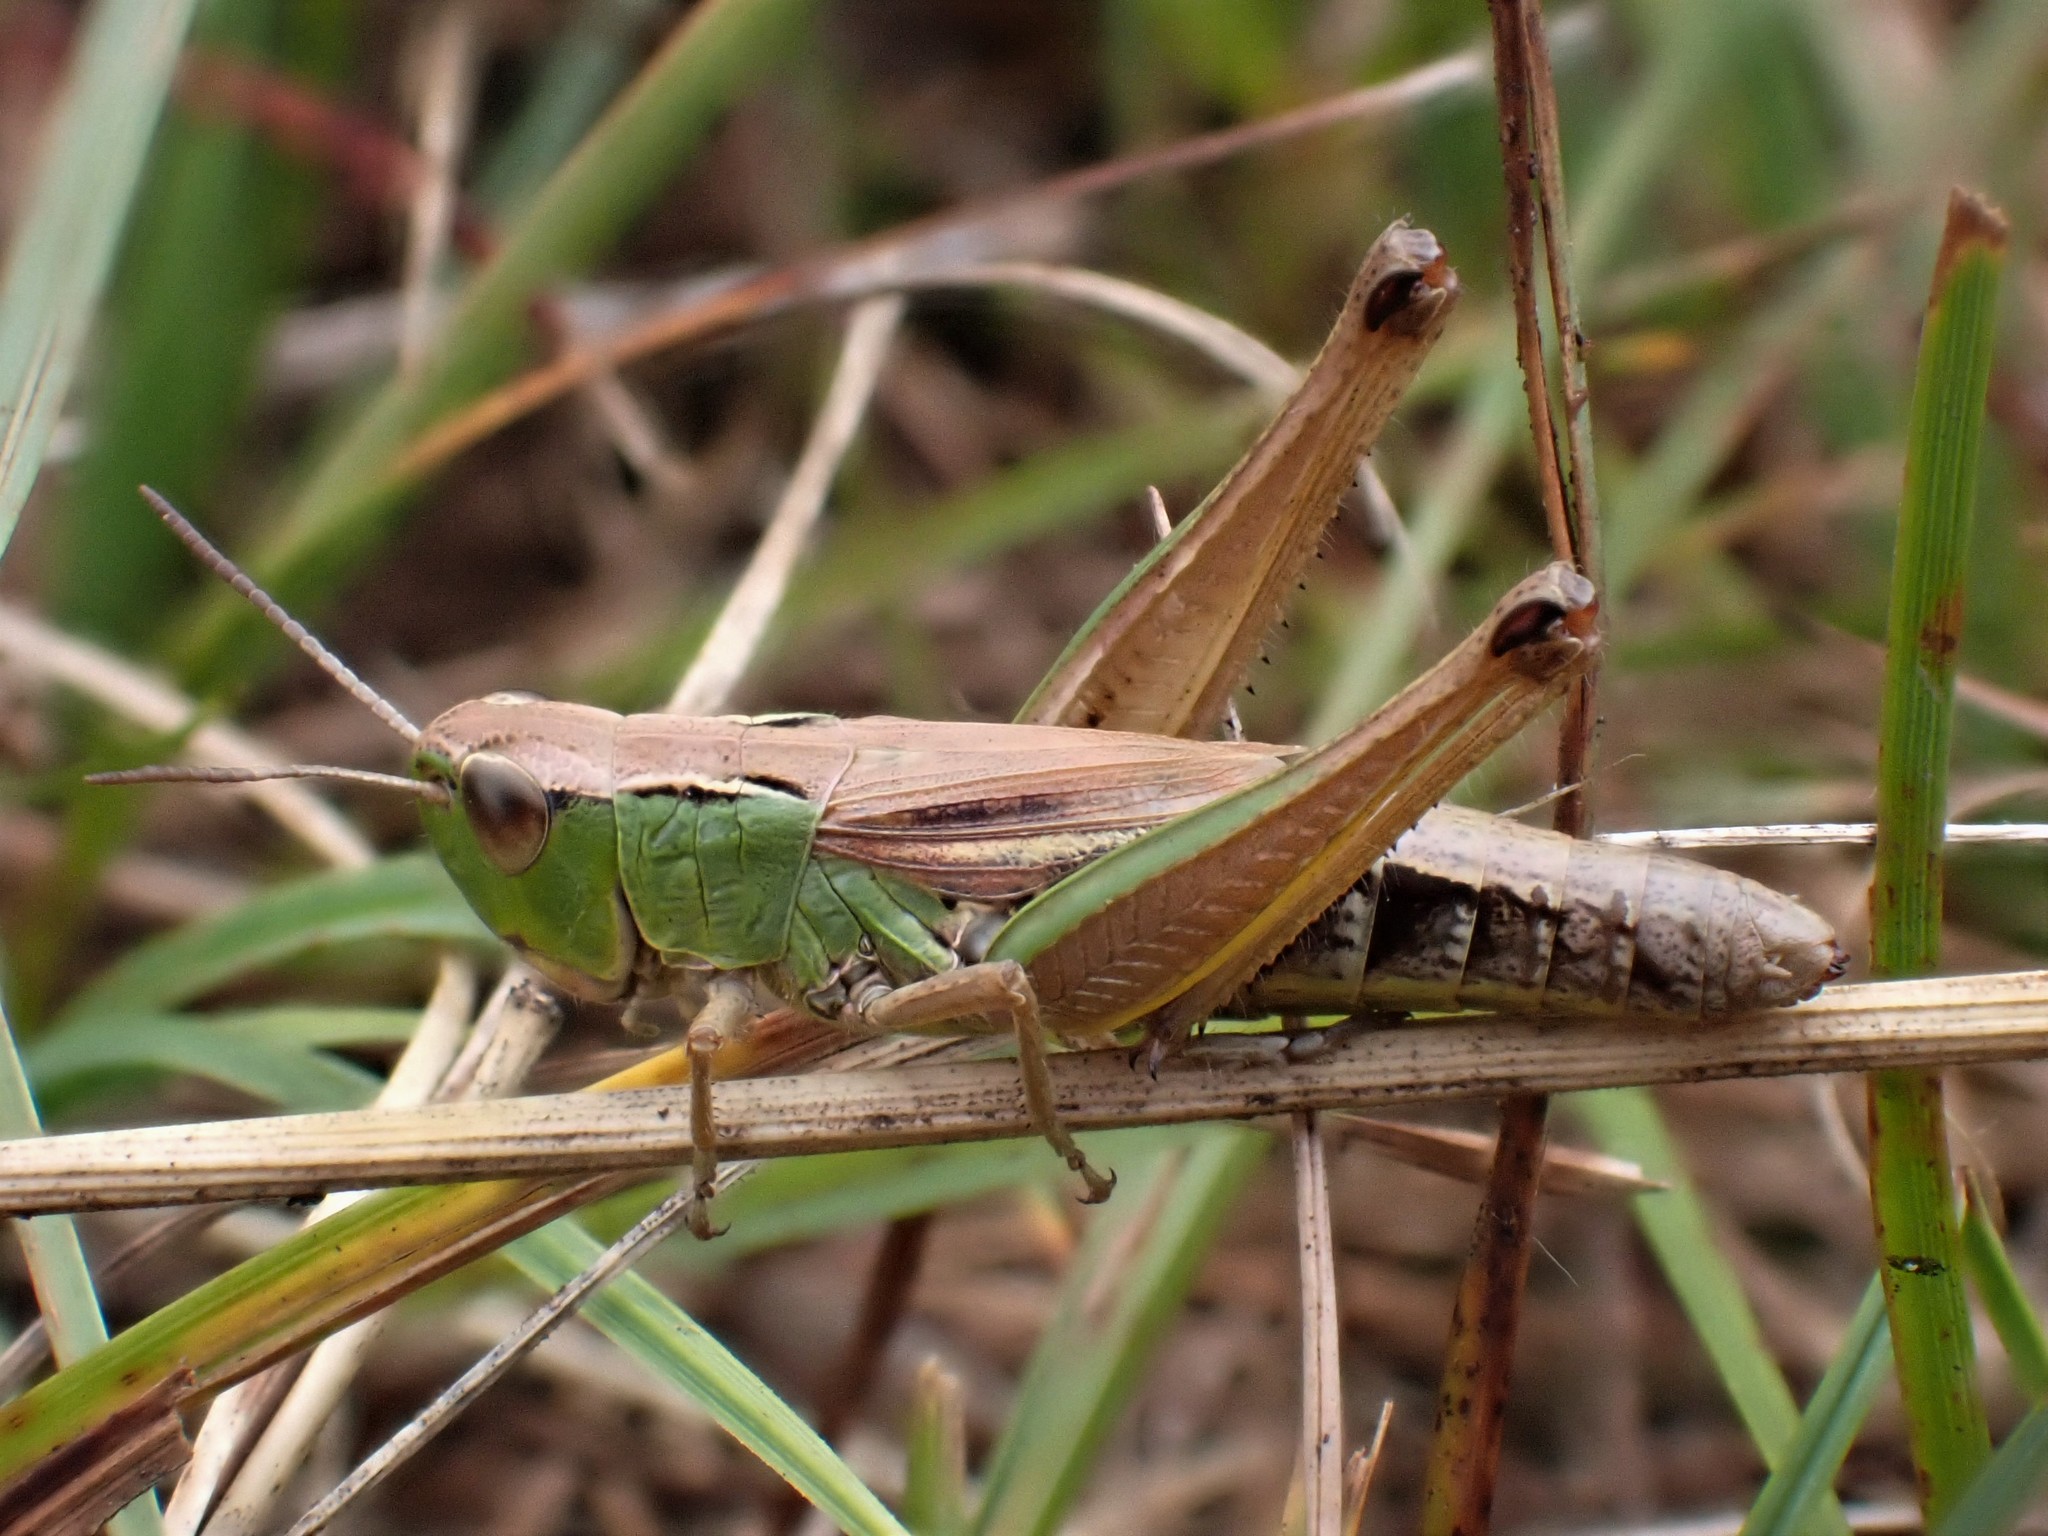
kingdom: Animalia
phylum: Arthropoda
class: Insecta
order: Orthoptera
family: Acrididae
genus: Pseudochorthippus
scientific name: Pseudochorthippus parallelus
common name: Meadow grasshopper
